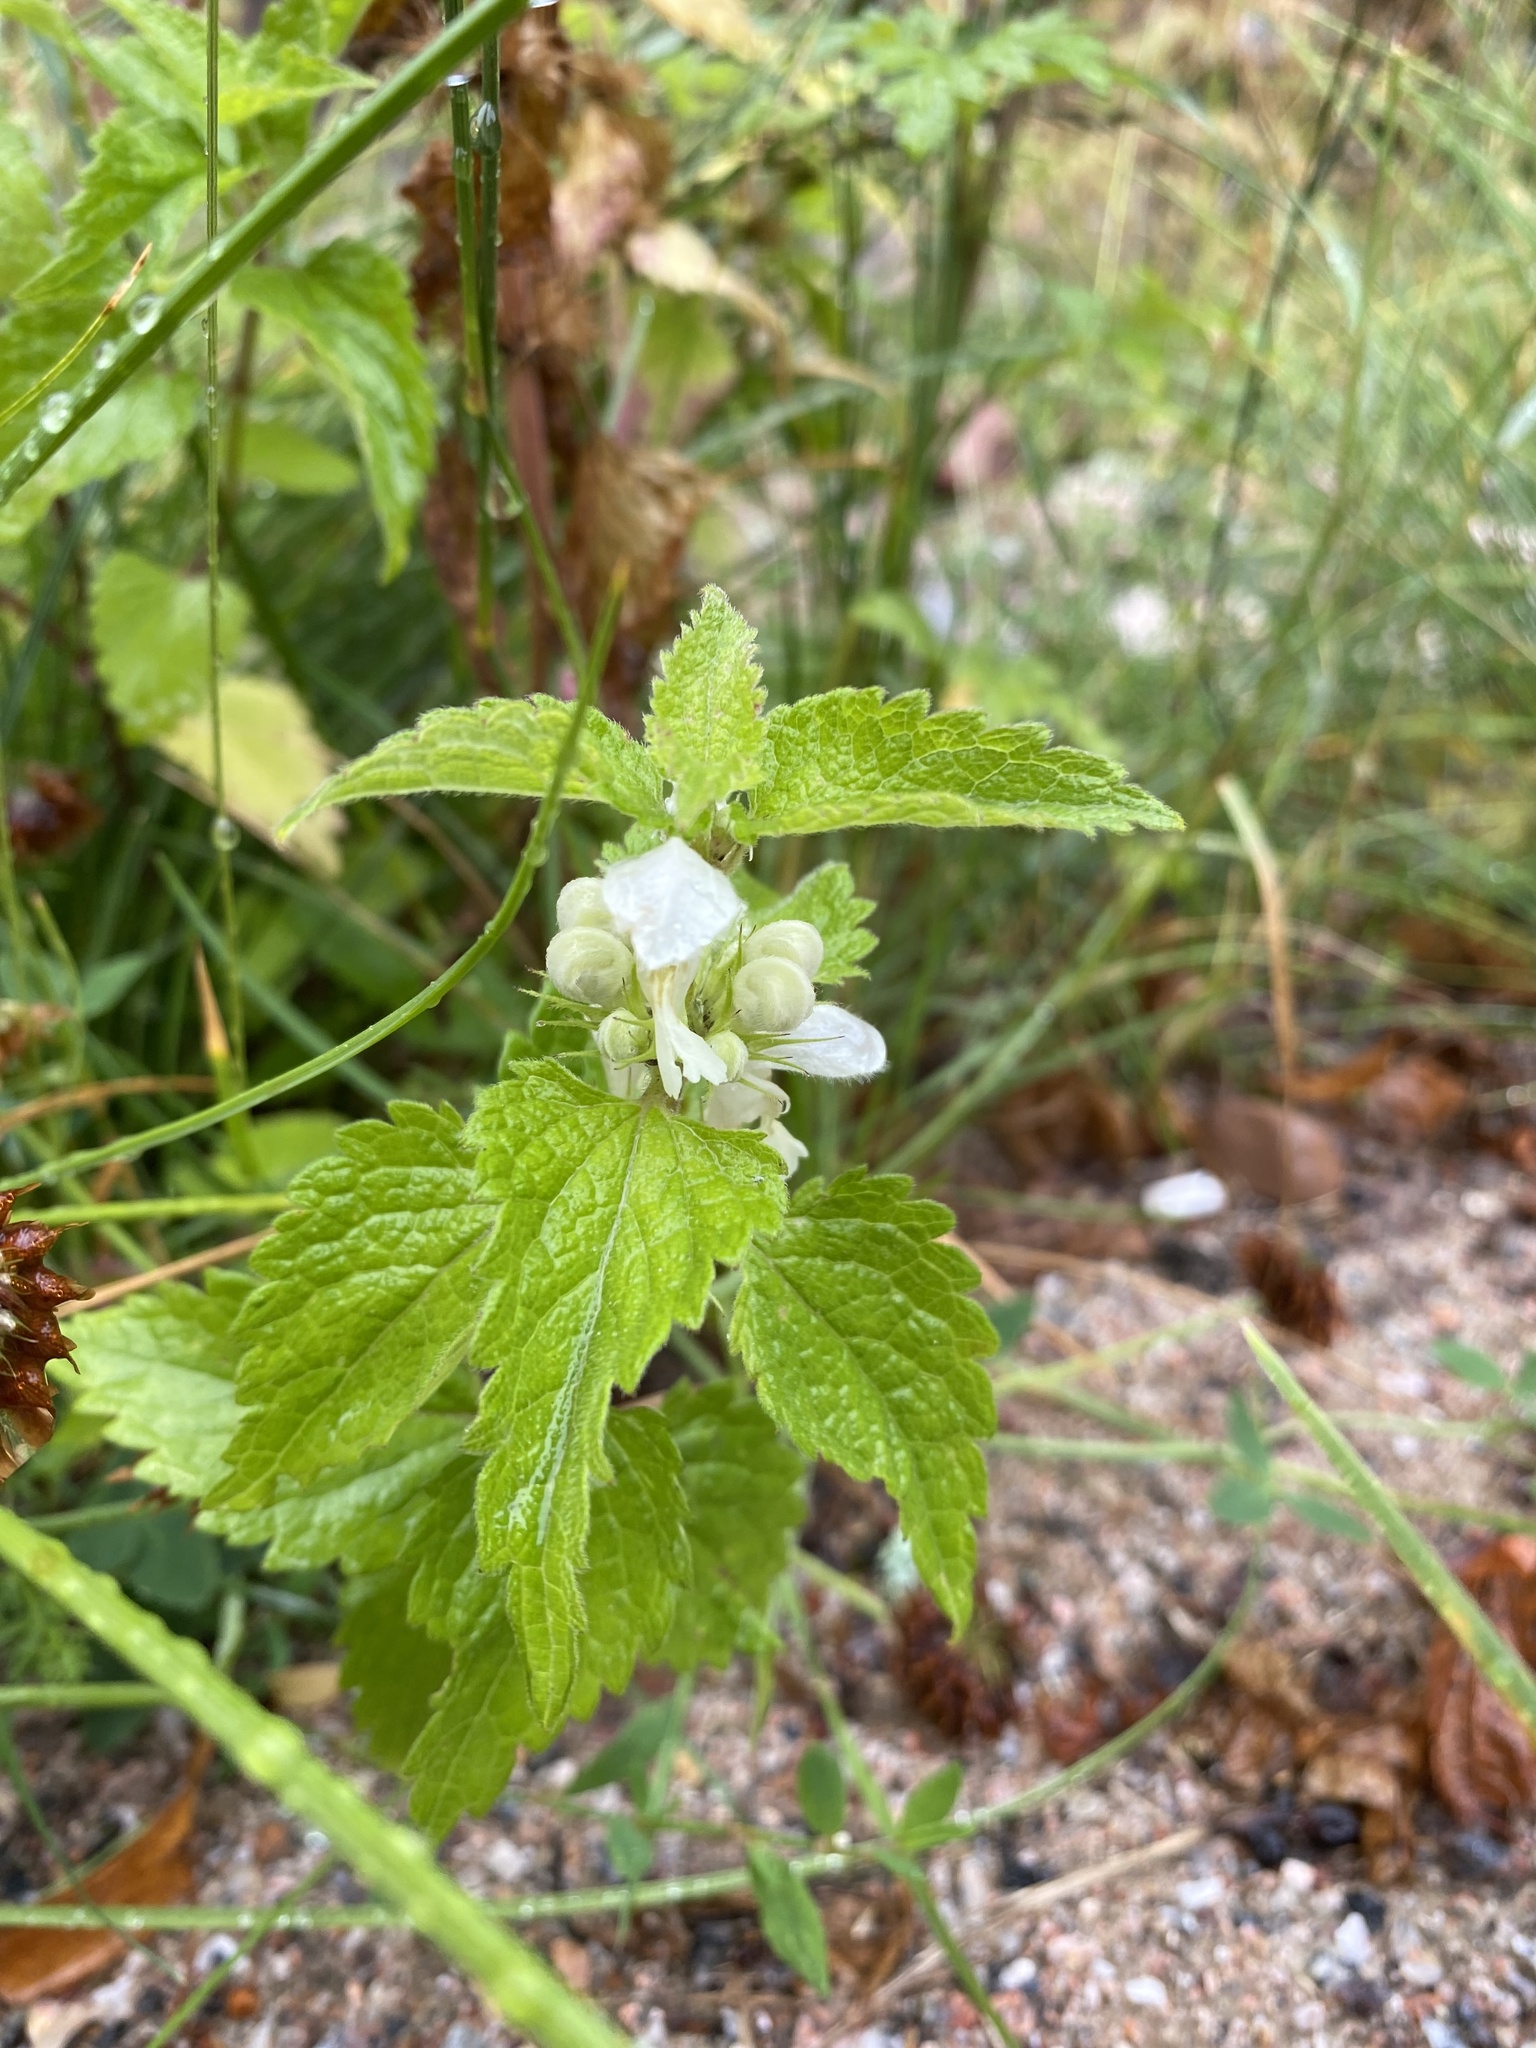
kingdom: Plantae
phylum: Tracheophyta
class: Magnoliopsida
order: Lamiales
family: Lamiaceae
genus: Lamium
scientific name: Lamium album
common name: White dead-nettle
